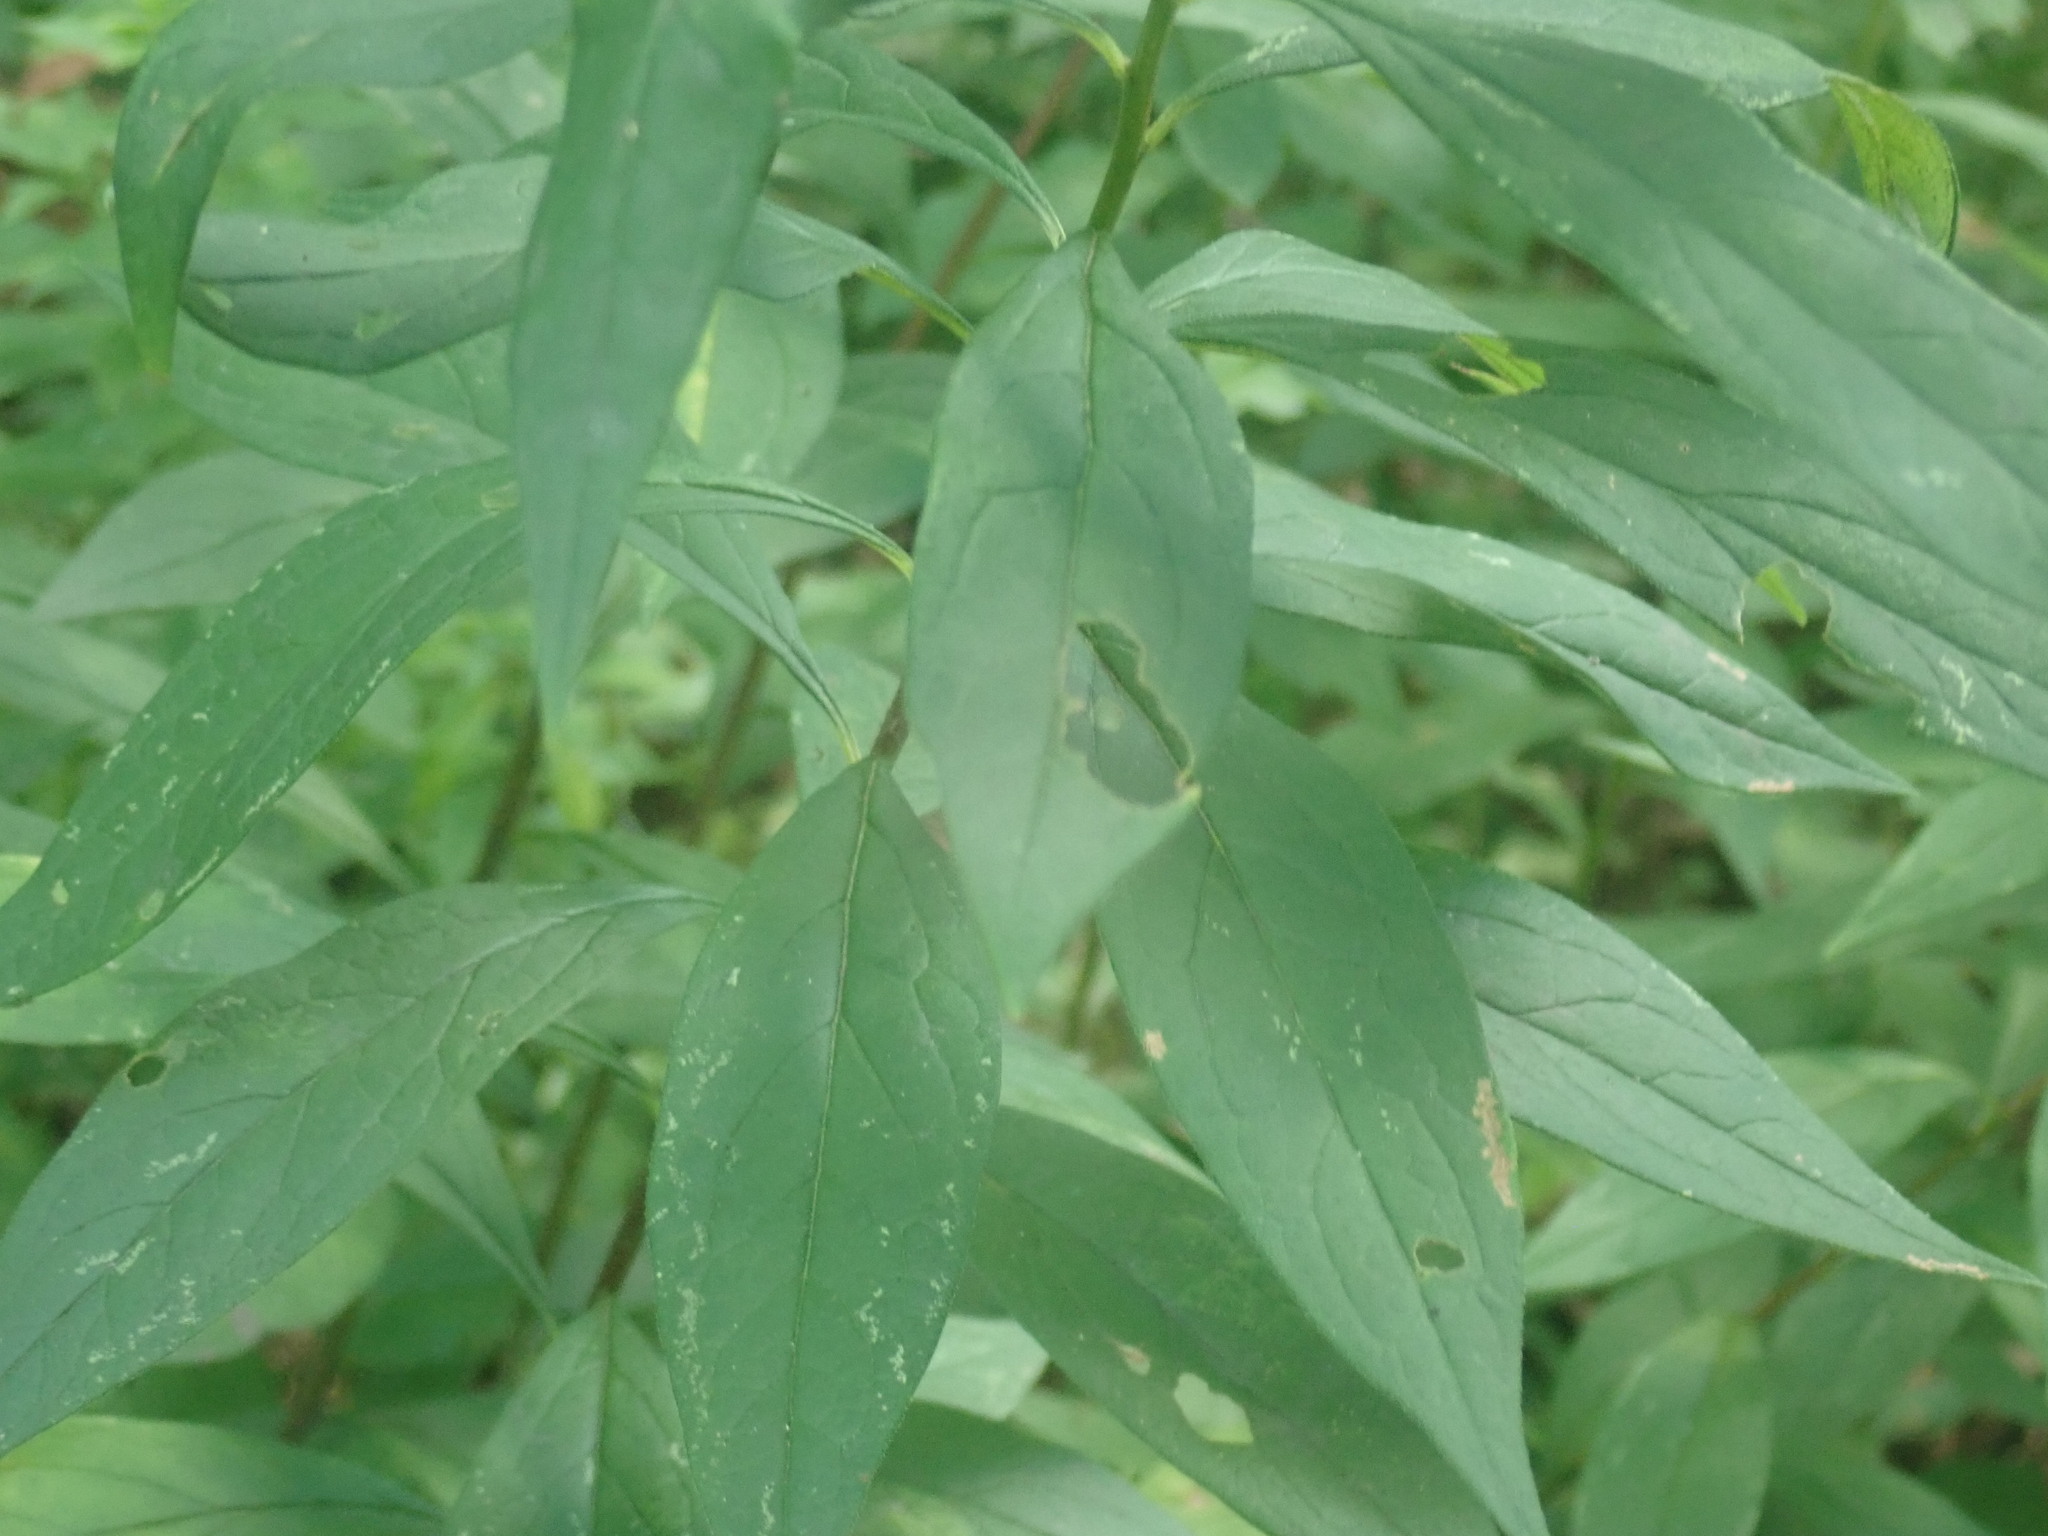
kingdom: Plantae
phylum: Tracheophyta
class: Magnoliopsida
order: Asterales
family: Asteraceae
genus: Doellingeria
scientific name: Doellingeria umbellata
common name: Flat-top white aster
